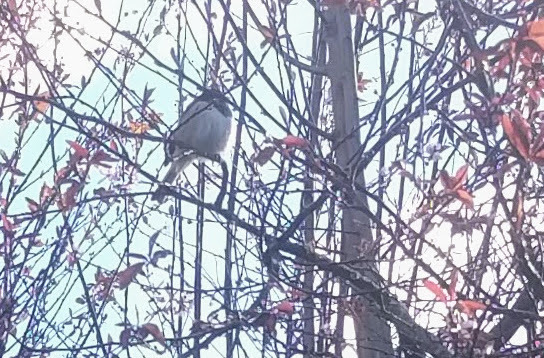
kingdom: Animalia
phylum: Chordata
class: Aves
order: Passeriformes
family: Paridae
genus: Poecile
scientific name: Poecile atricapillus
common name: Black-capped chickadee
